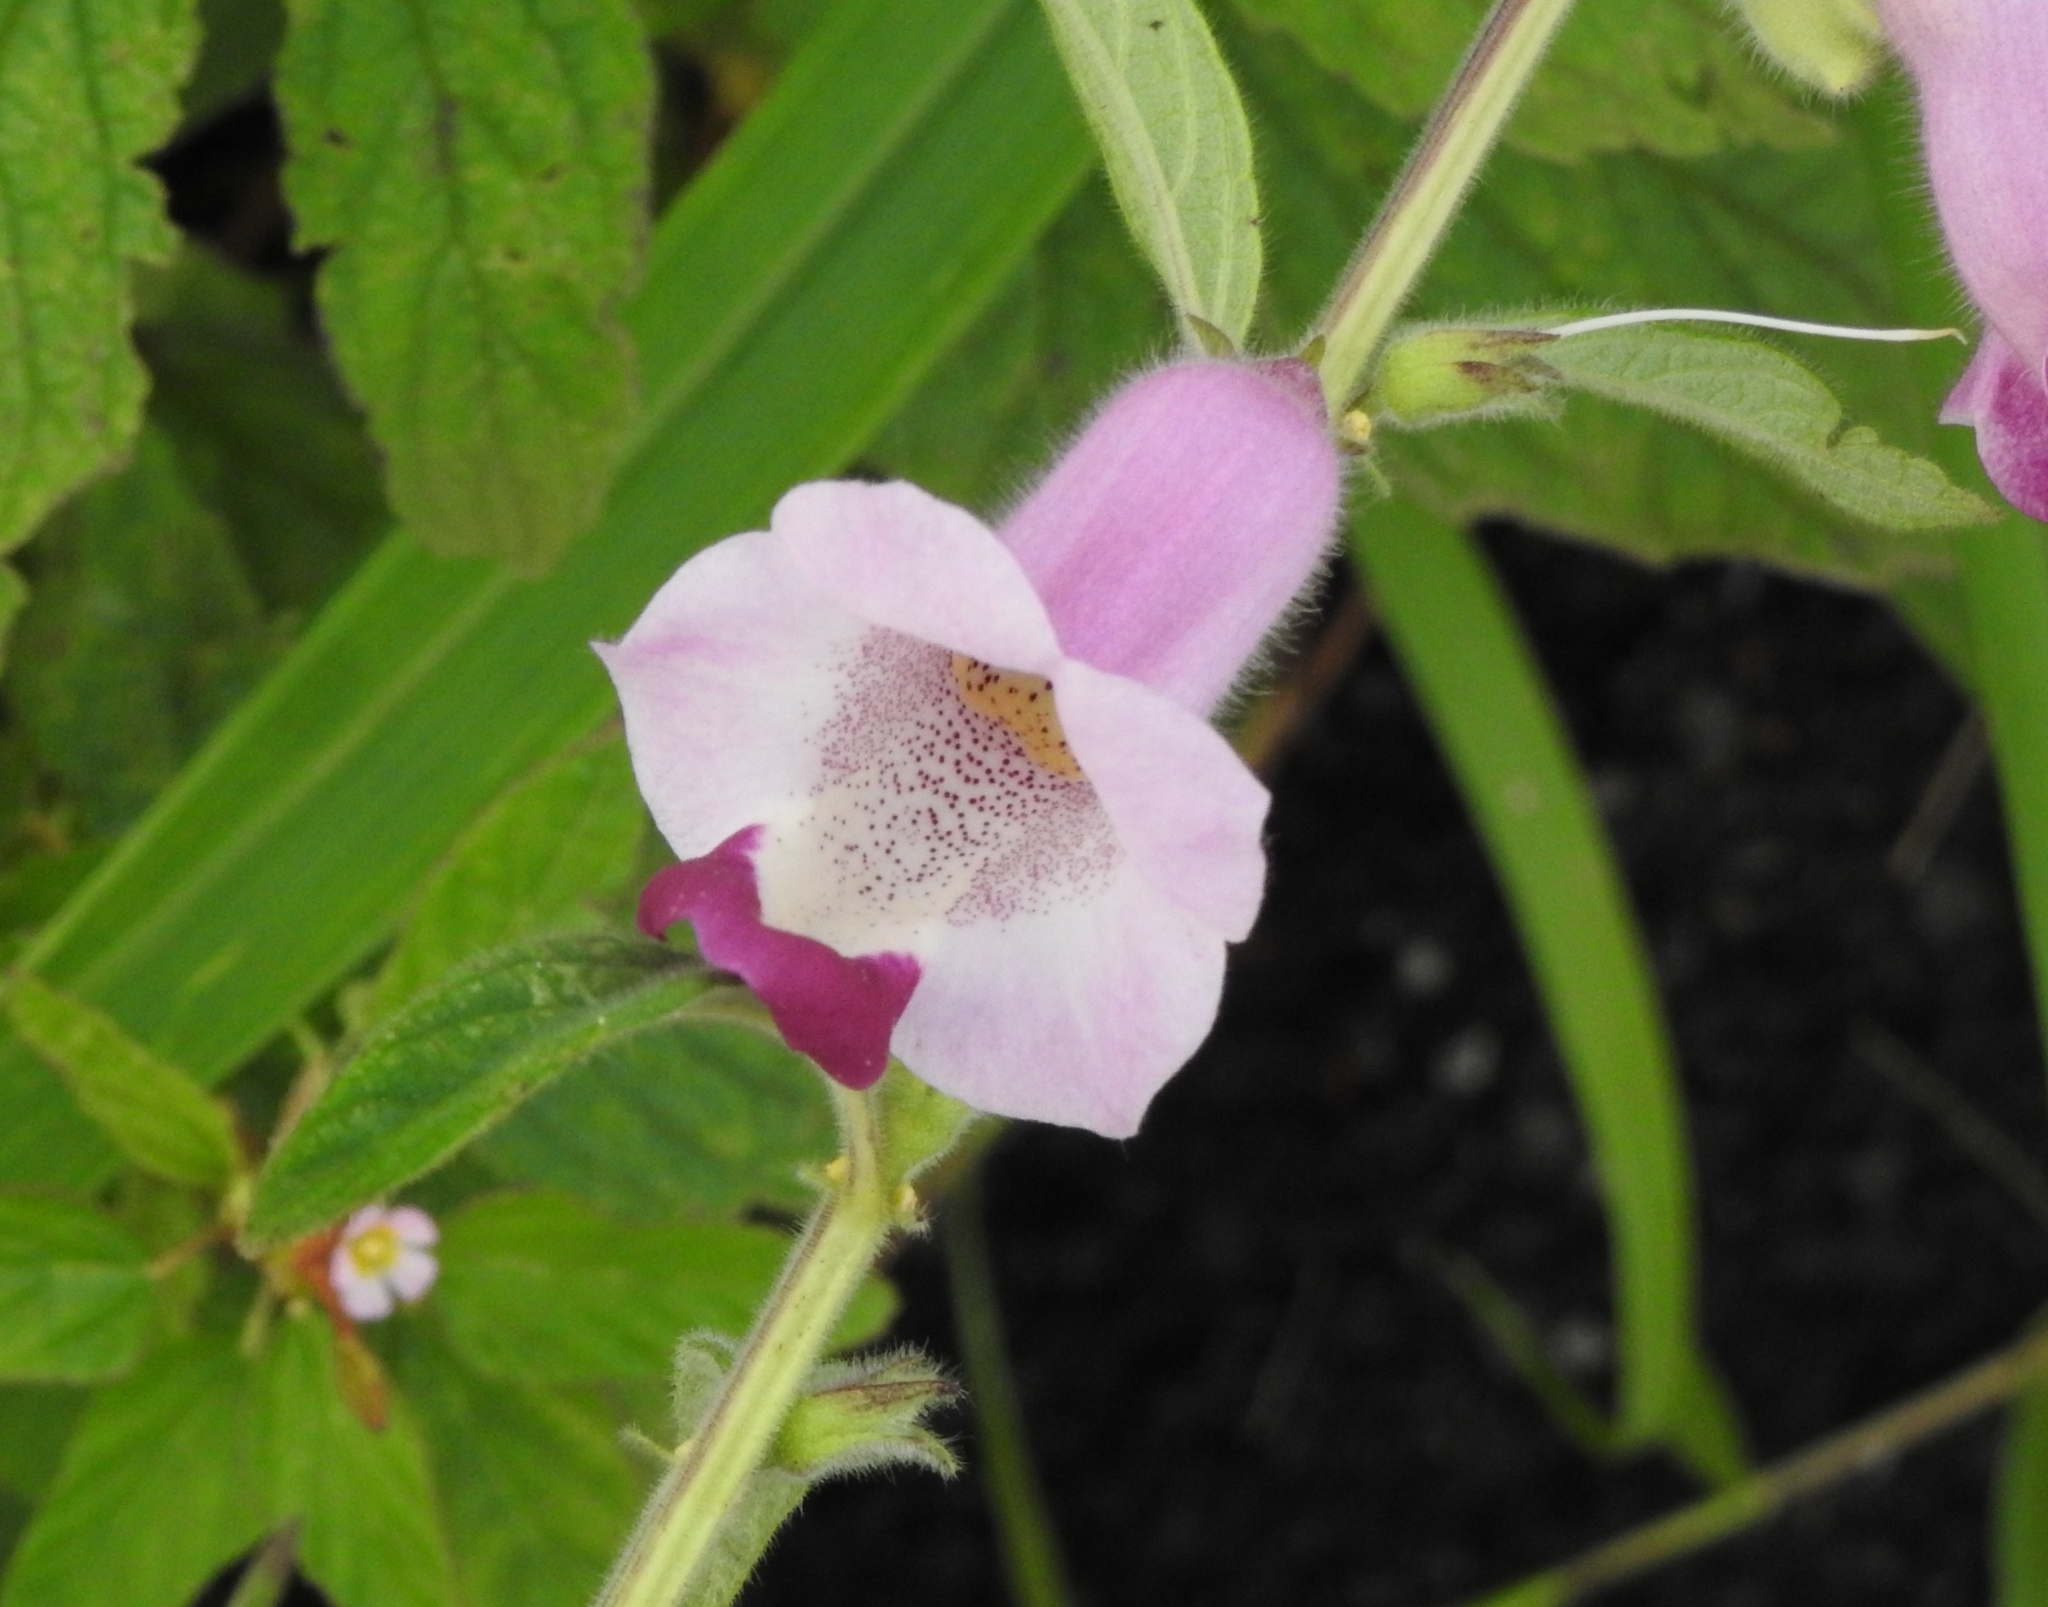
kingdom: Plantae
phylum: Tracheophyta
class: Magnoliopsida
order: Lamiales
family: Pedaliaceae
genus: Sesamum
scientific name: Sesamum indicum
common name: Sesame
